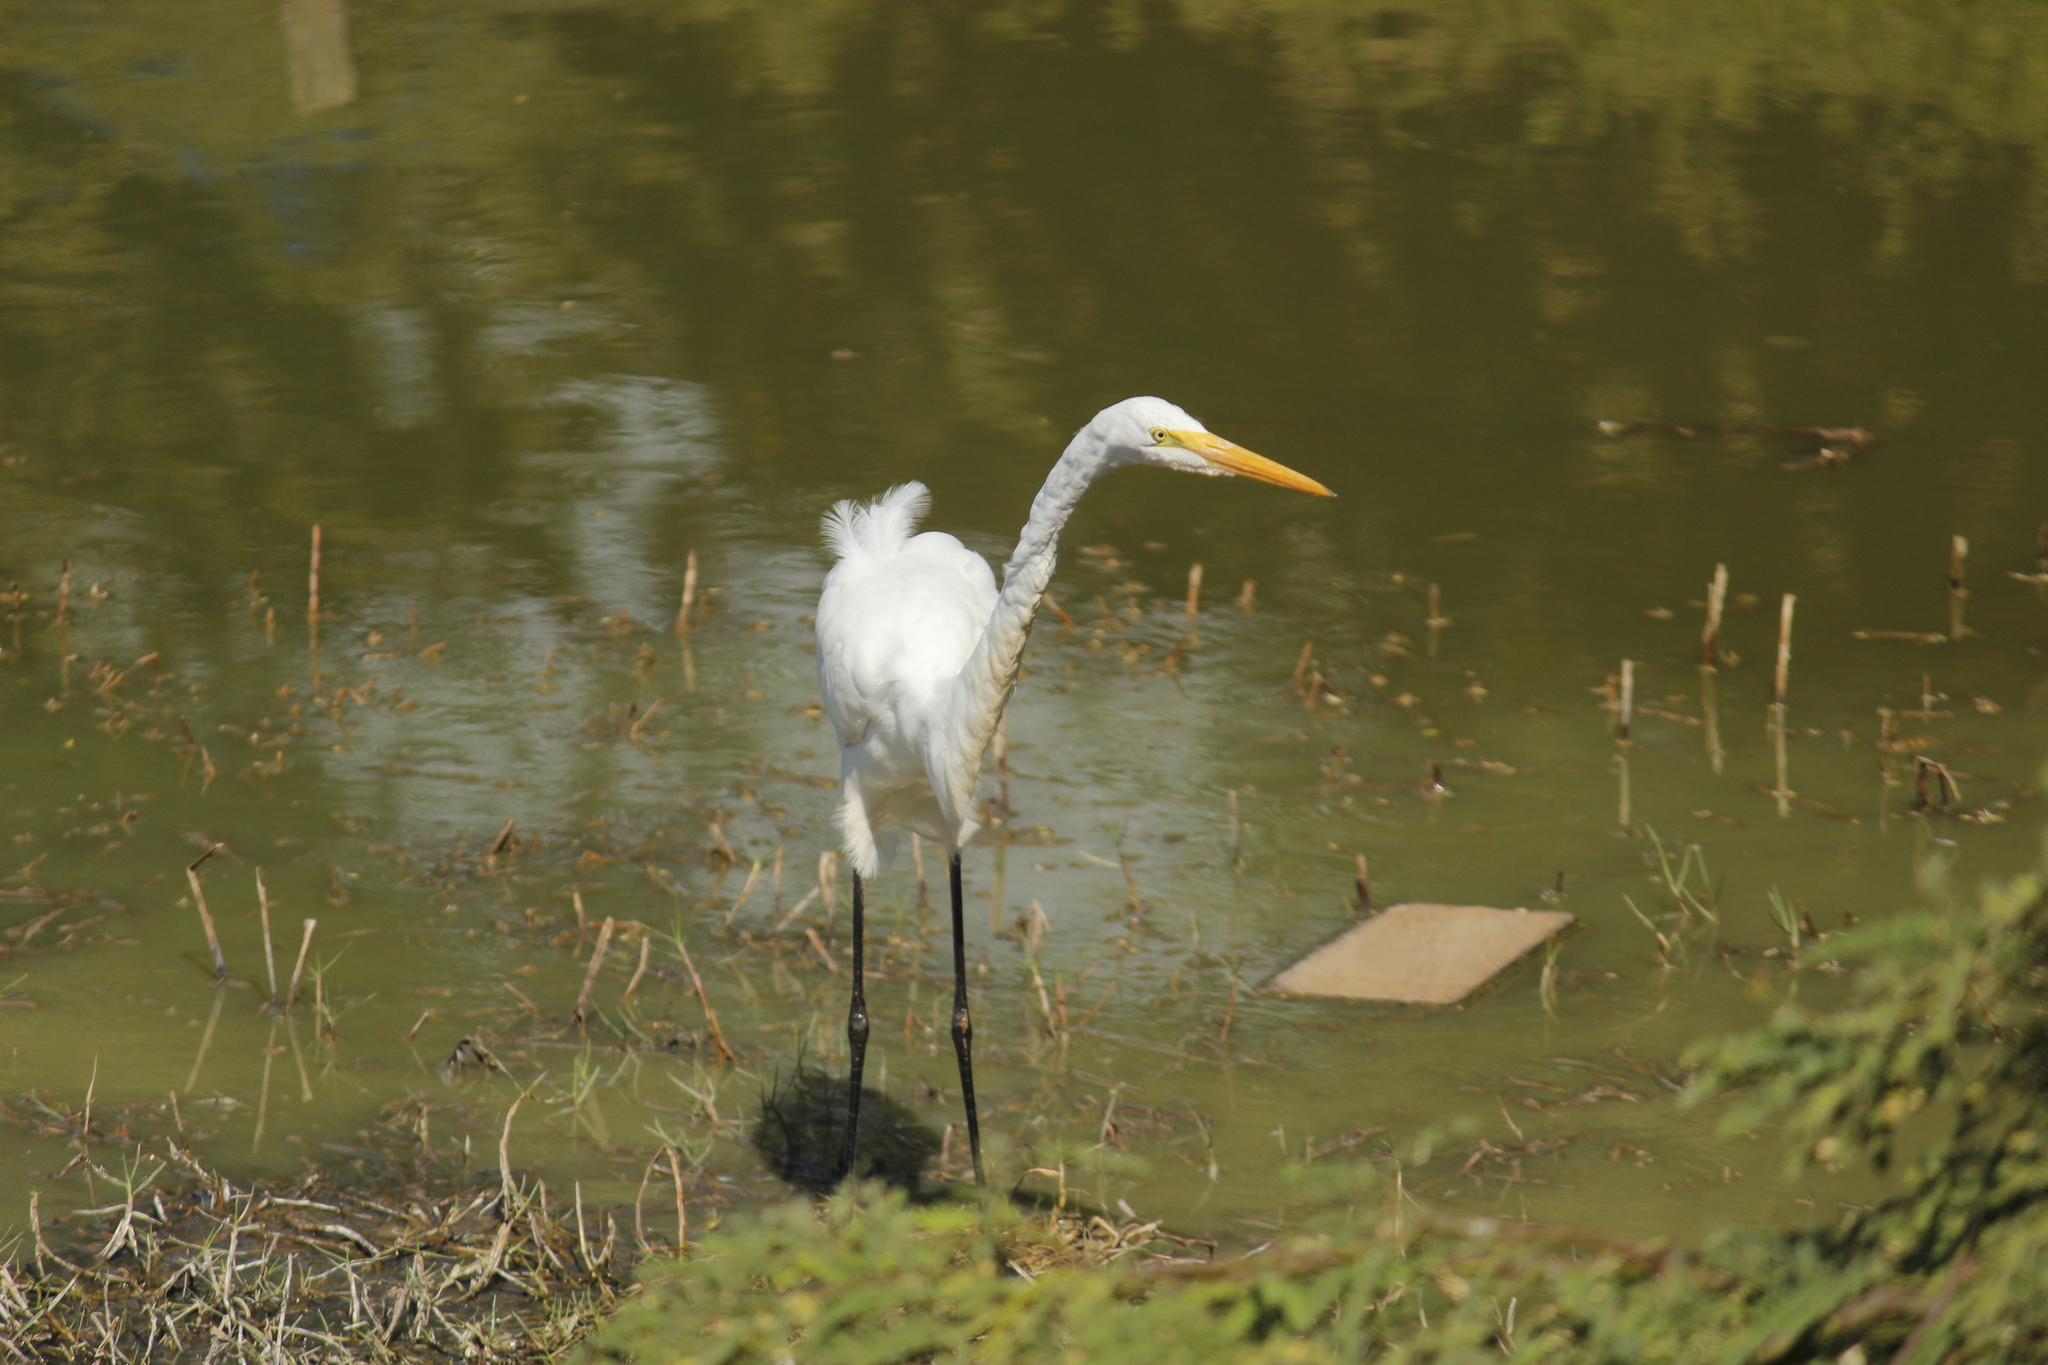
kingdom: Animalia
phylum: Chordata
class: Aves
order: Pelecaniformes
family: Ardeidae
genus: Ardea
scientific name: Ardea alba
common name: Great egret
